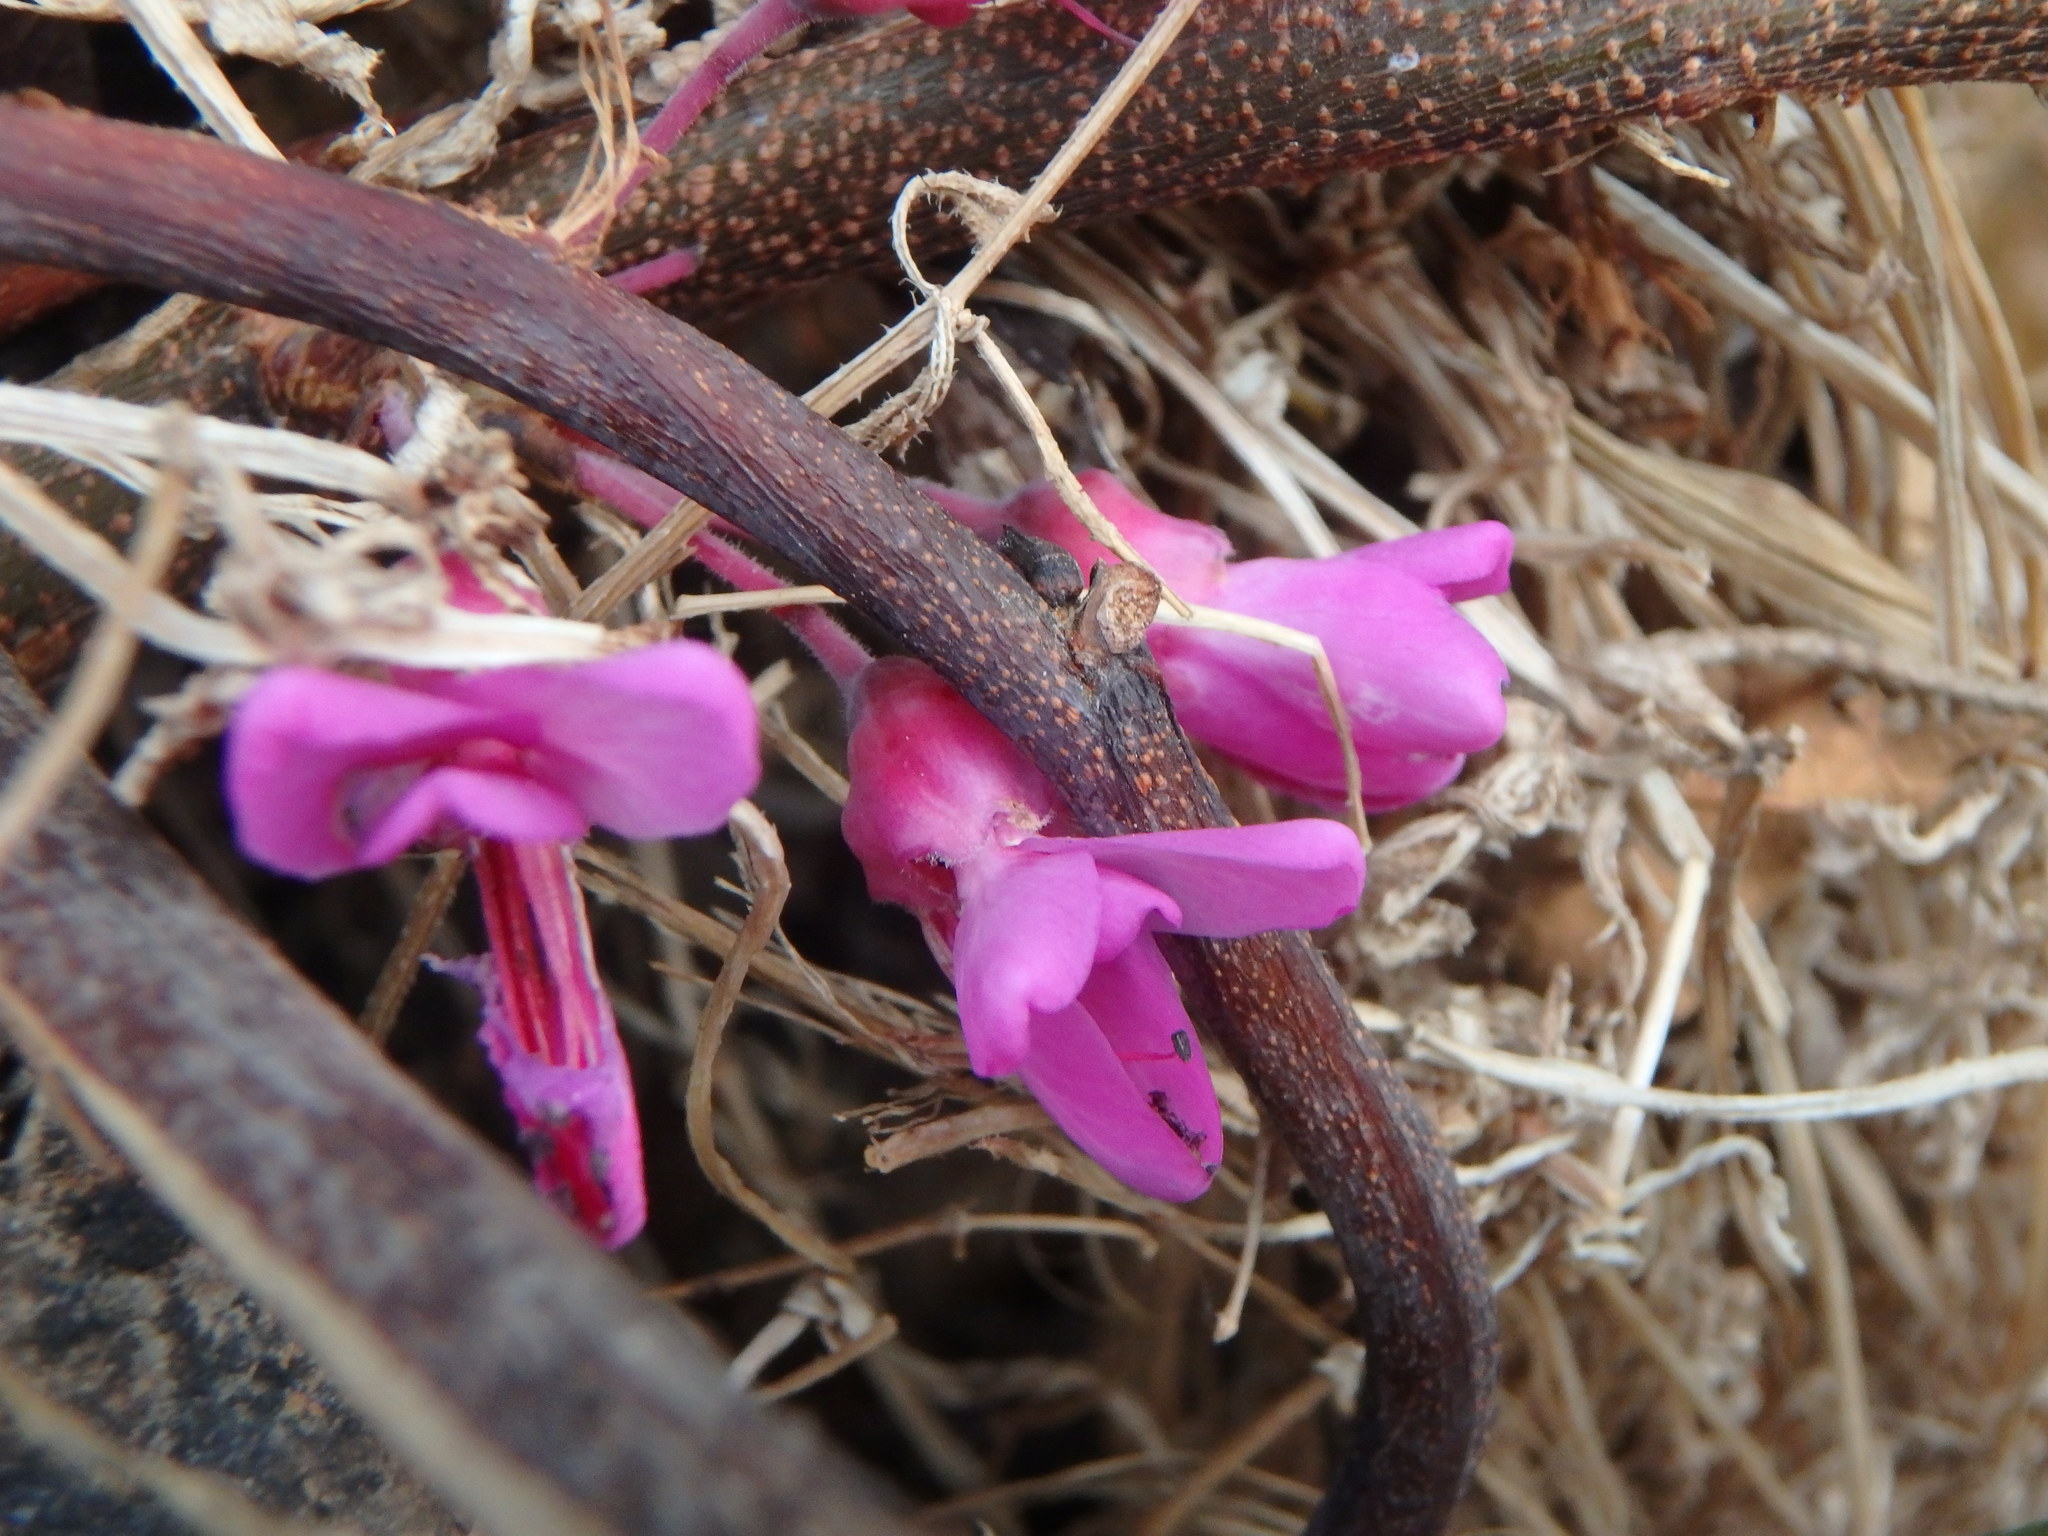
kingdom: Plantae
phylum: Tracheophyta
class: Magnoliopsida
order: Fabales
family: Fabaceae
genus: Cercis
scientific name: Cercis siliquastrum
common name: Judas tree
